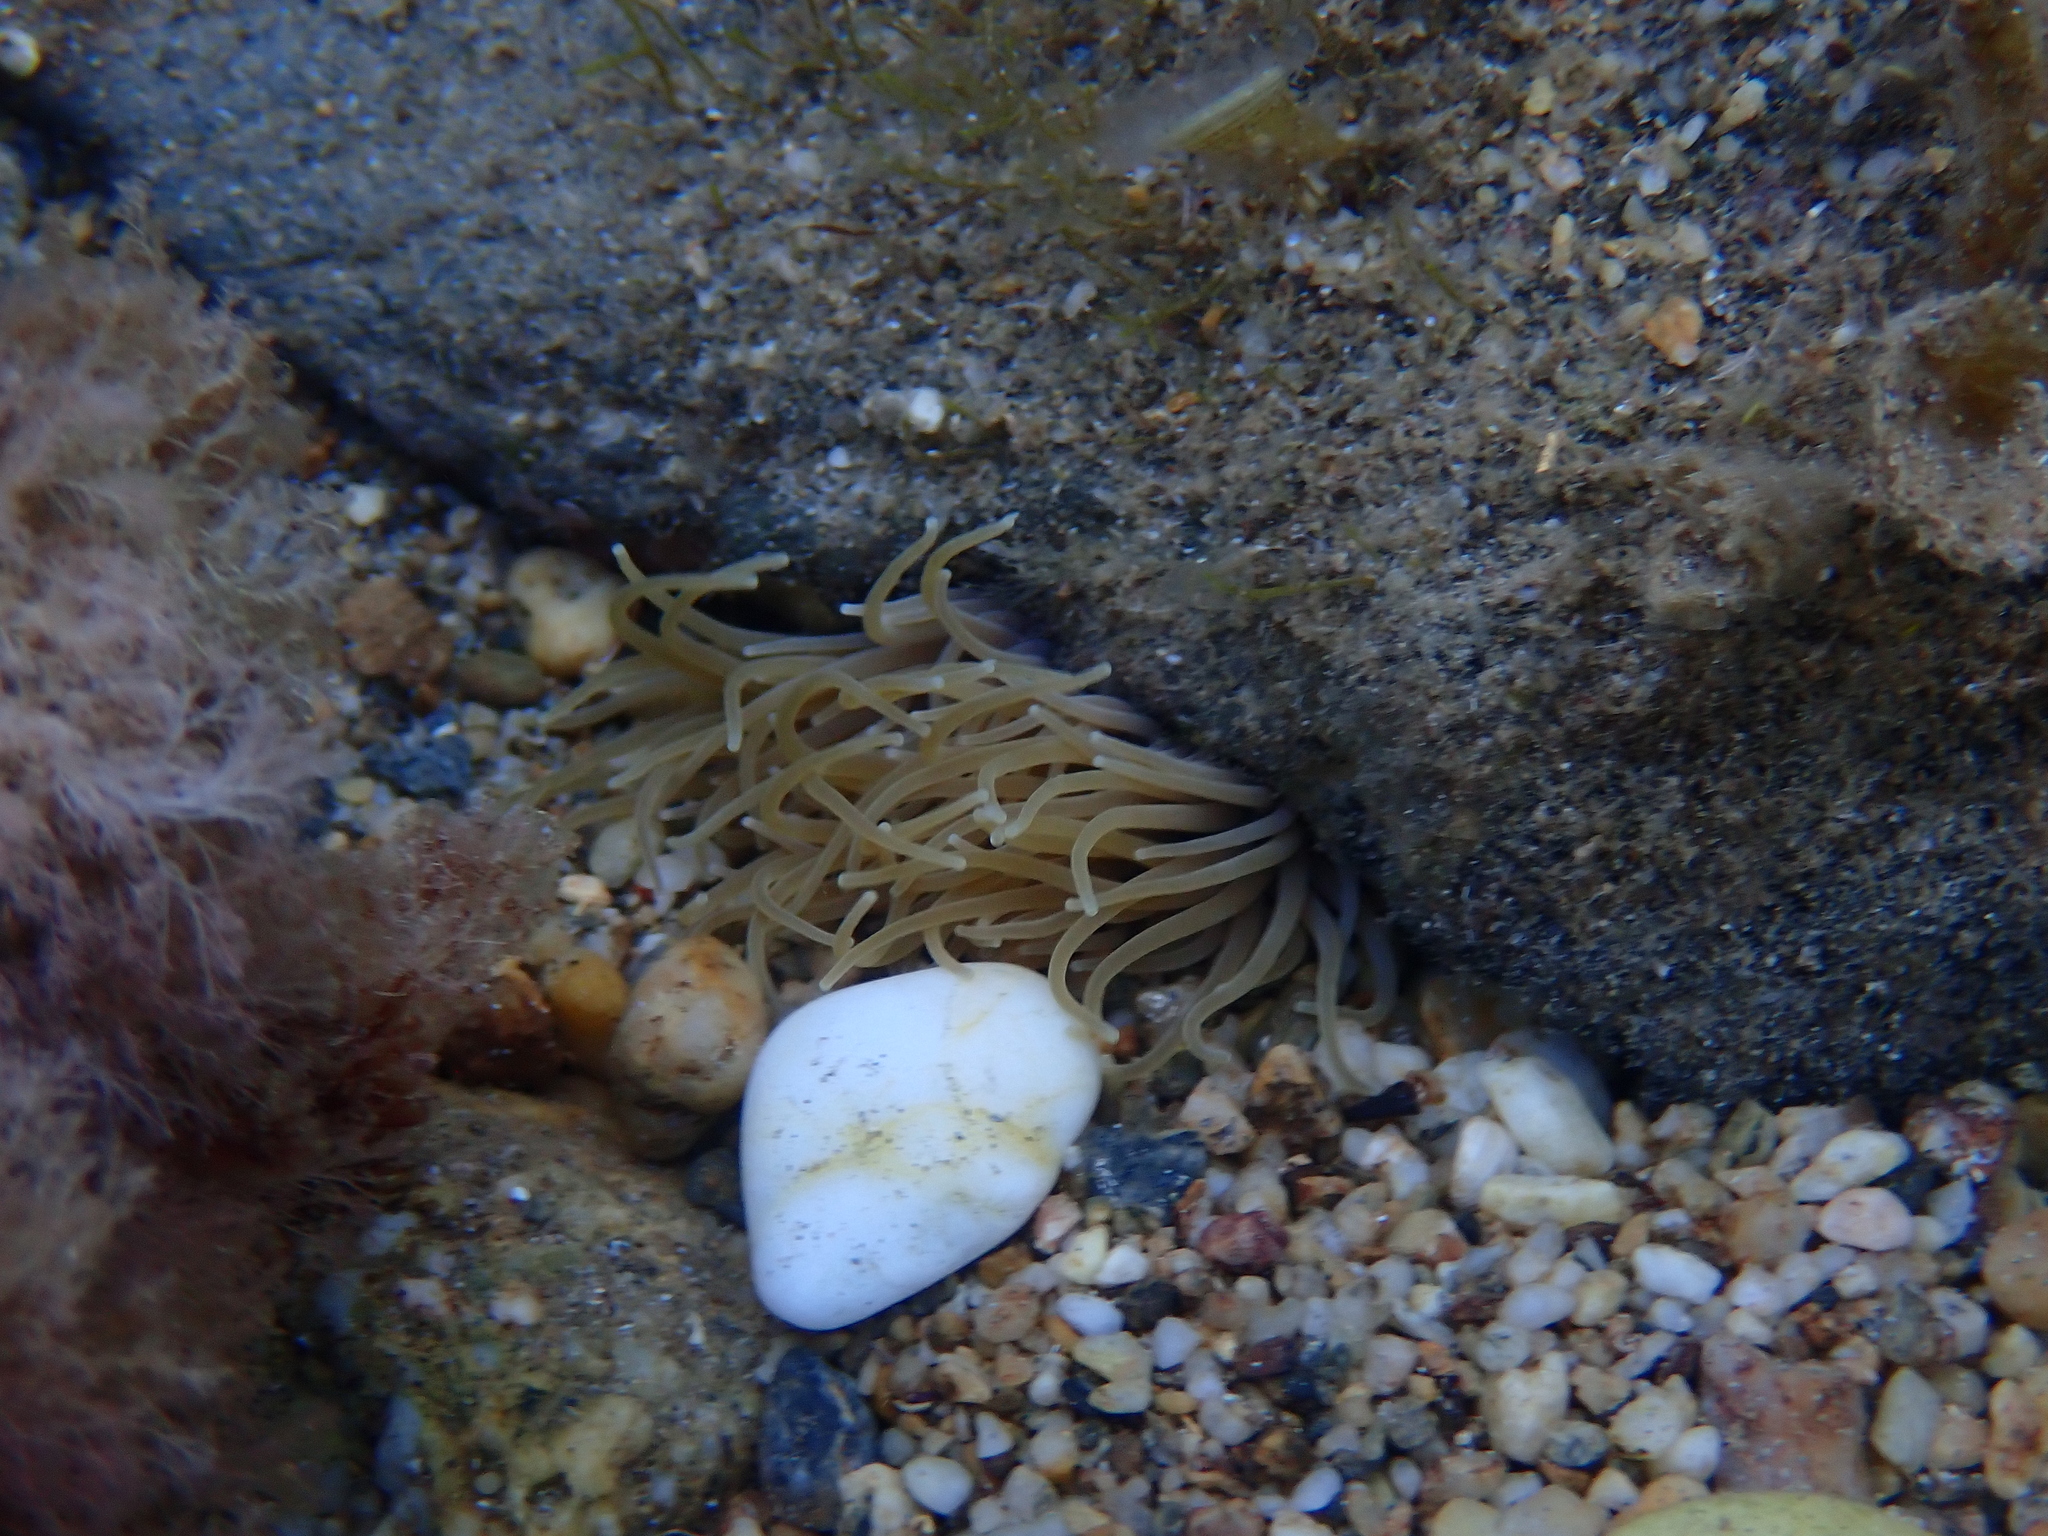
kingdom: Animalia
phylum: Cnidaria
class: Anthozoa
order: Actiniaria
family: Actiniidae
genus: Anemonia
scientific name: Anemonia viridis
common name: Snakelocks anemone
